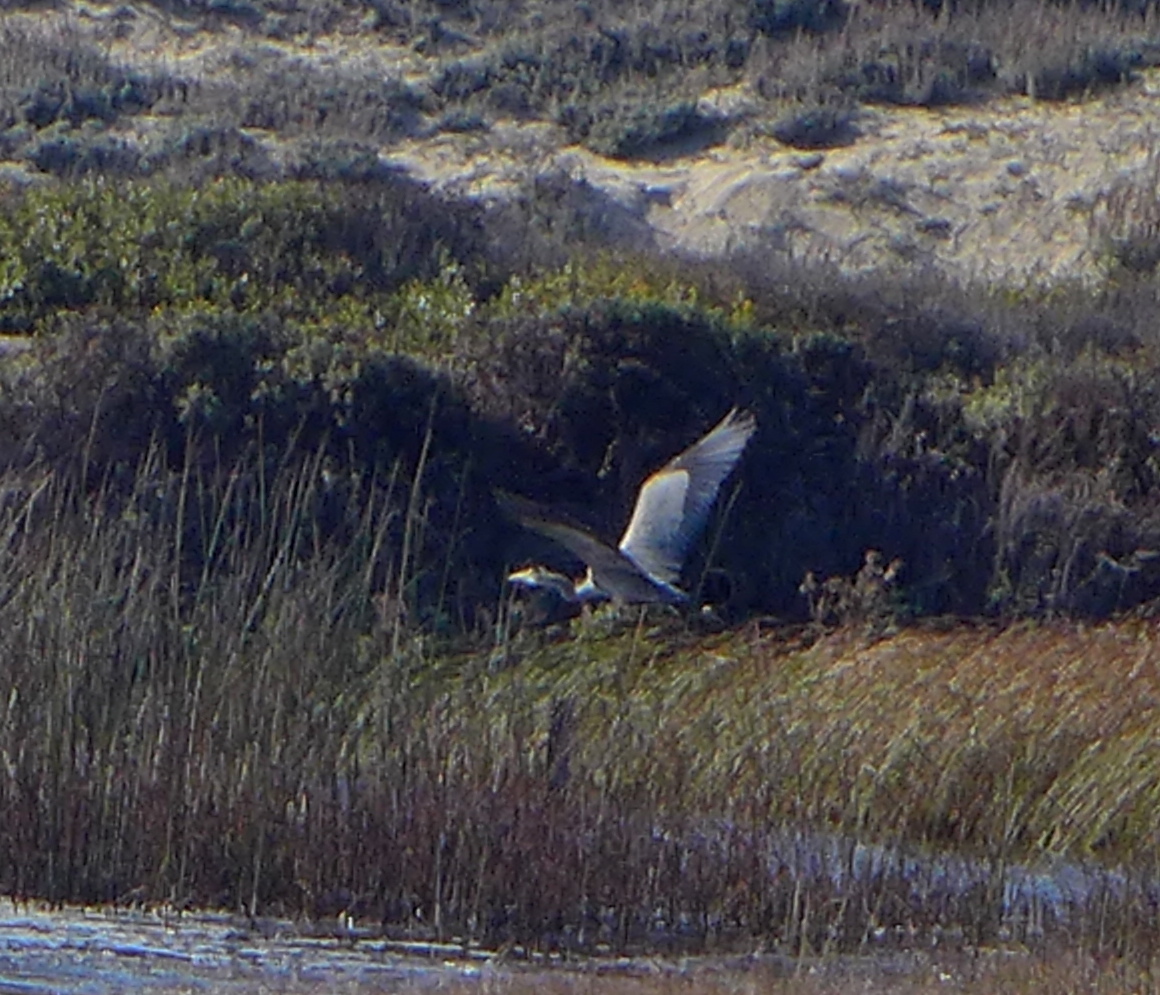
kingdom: Animalia
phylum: Chordata
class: Aves
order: Pelecaniformes
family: Ardeidae
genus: Ardea
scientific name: Ardea herodias
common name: Great blue heron
